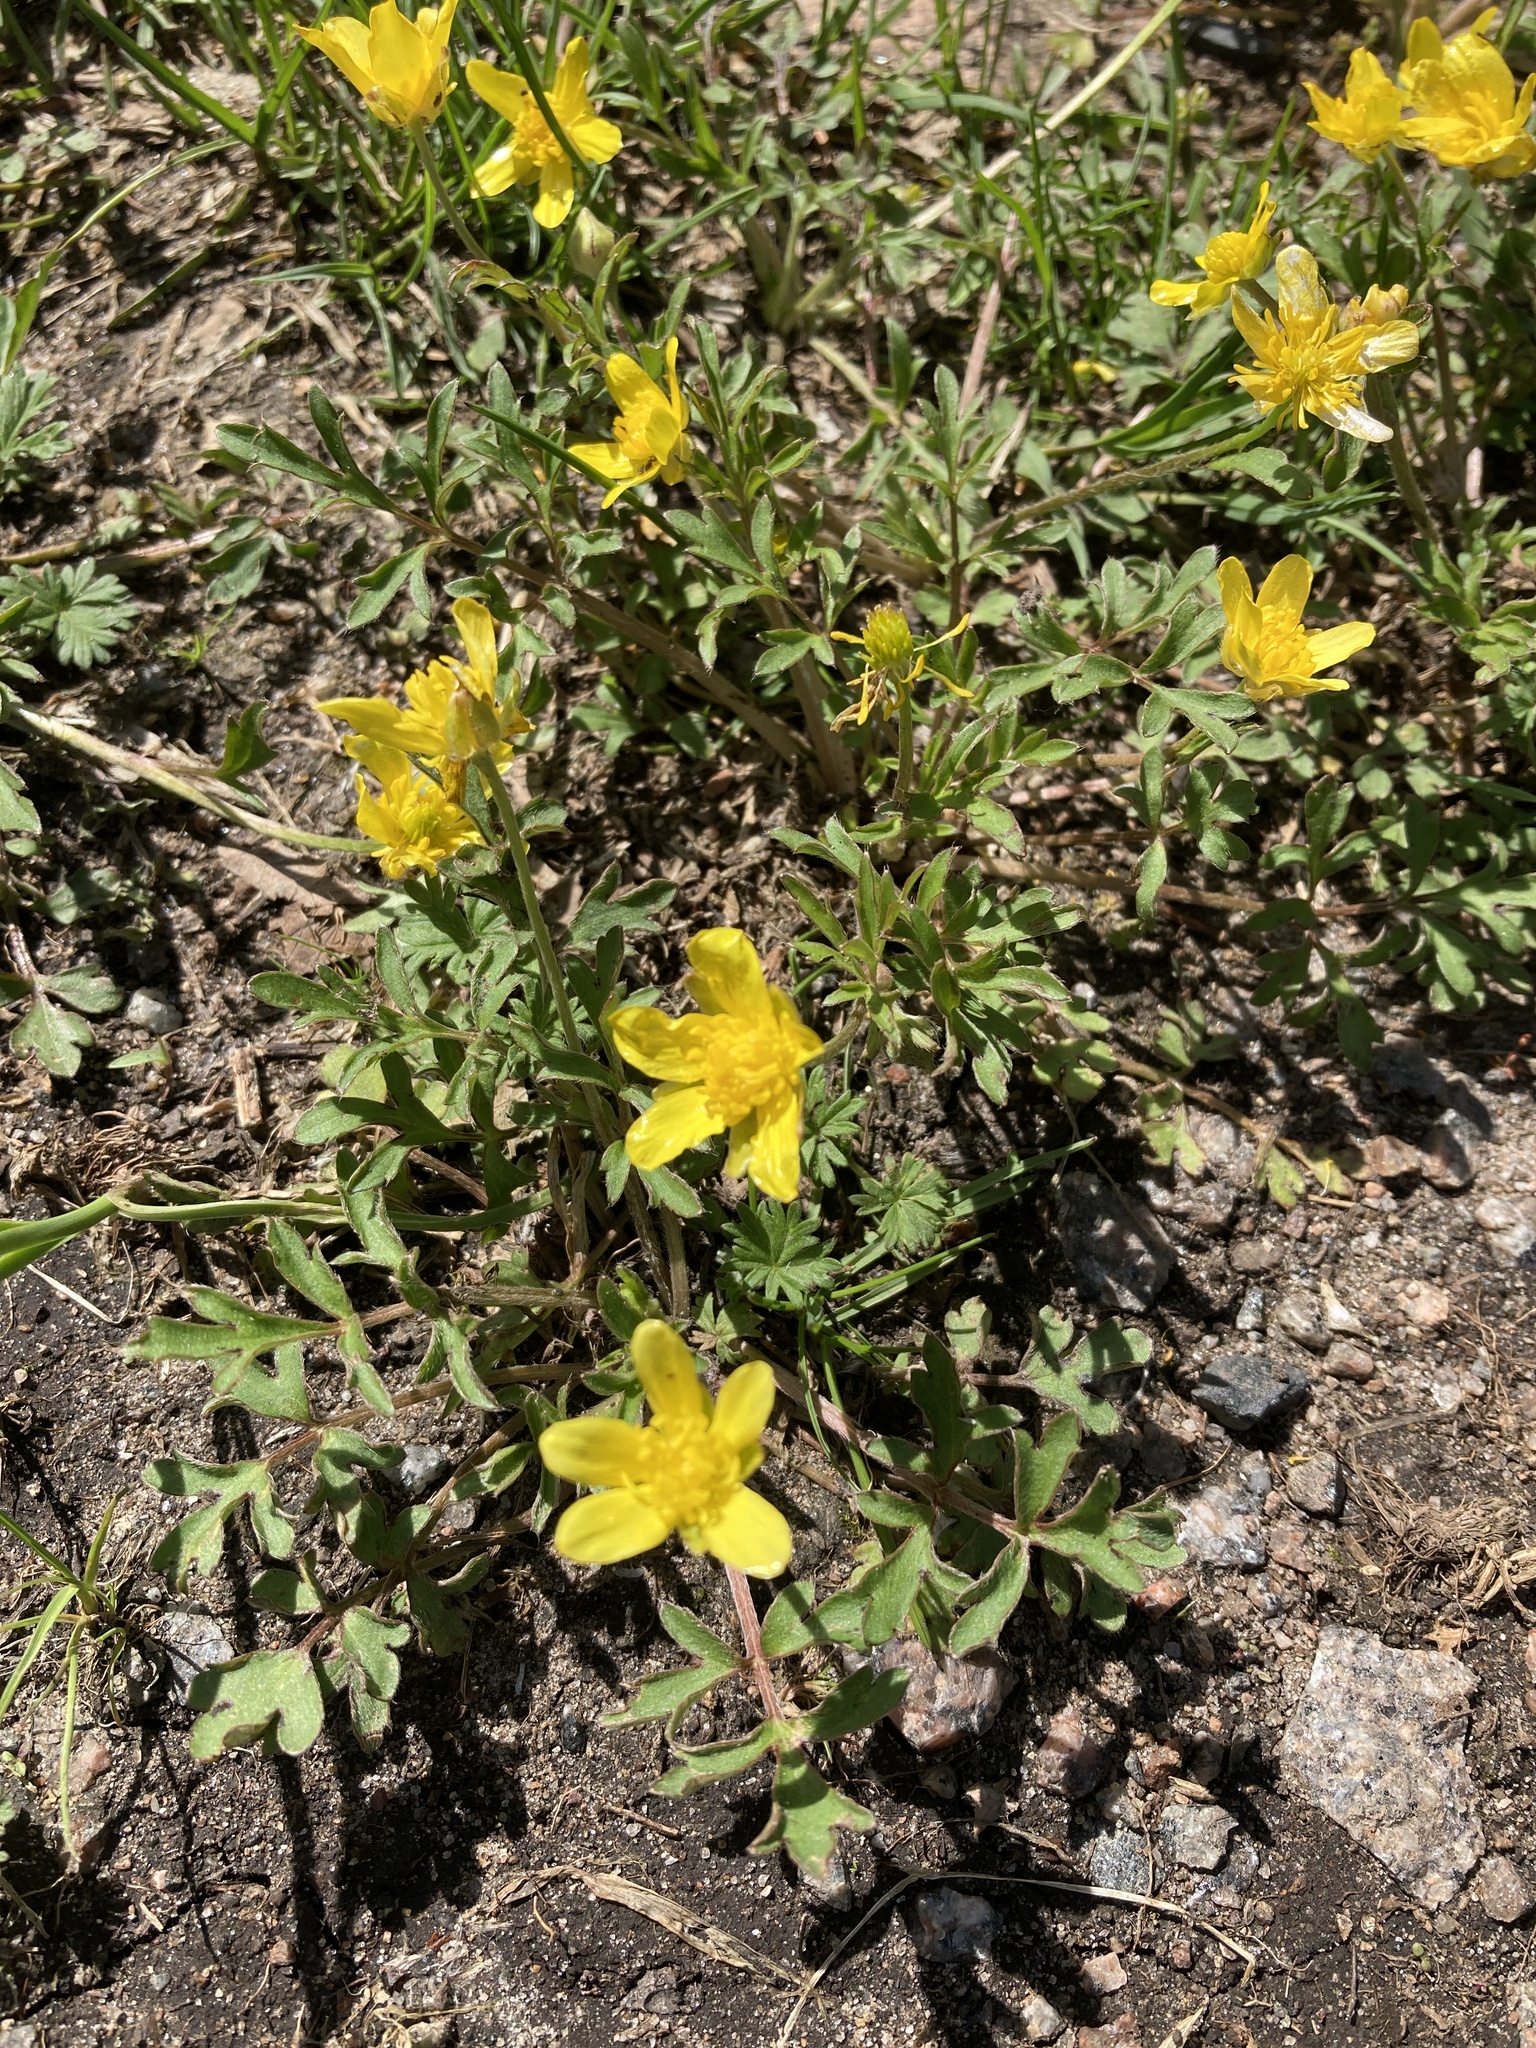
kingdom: Plantae
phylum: Tracheophyta
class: Magnoliopsida
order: Ranunculales
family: Ranunculaceae
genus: Ranunculus
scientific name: Ranunculus fascicularis
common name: Early buttercup
